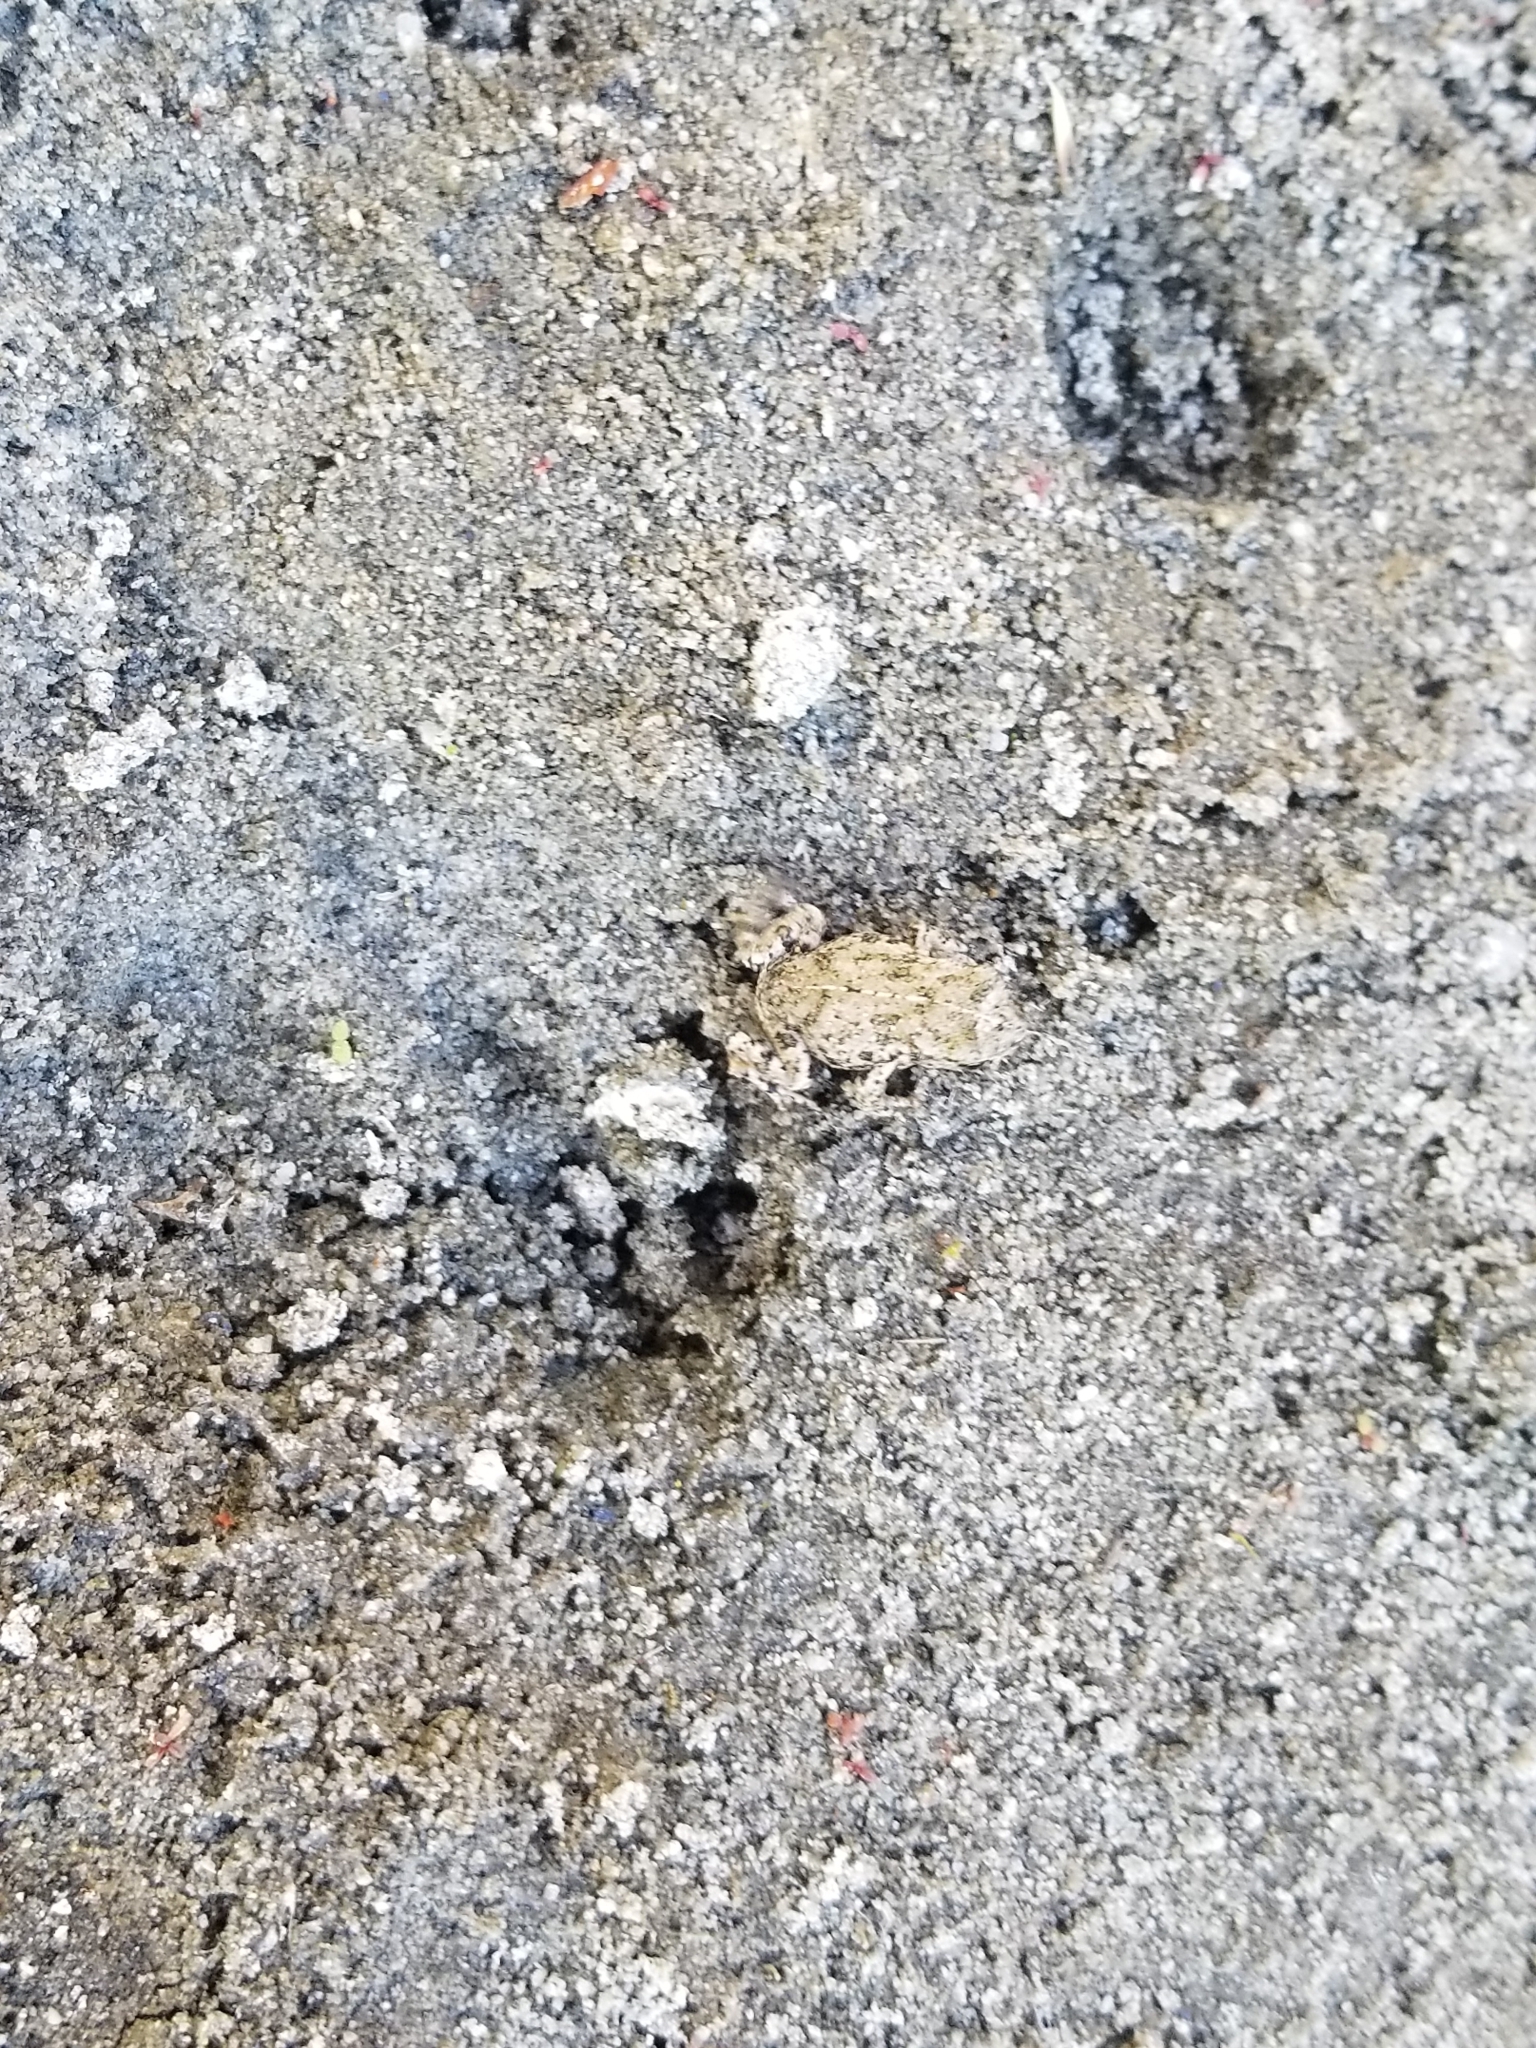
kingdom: Animalia
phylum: Chordata
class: Amphibia
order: Anura
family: Bufonidae
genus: Anaxyrus
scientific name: Anaxyrus boreas
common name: Western toad
